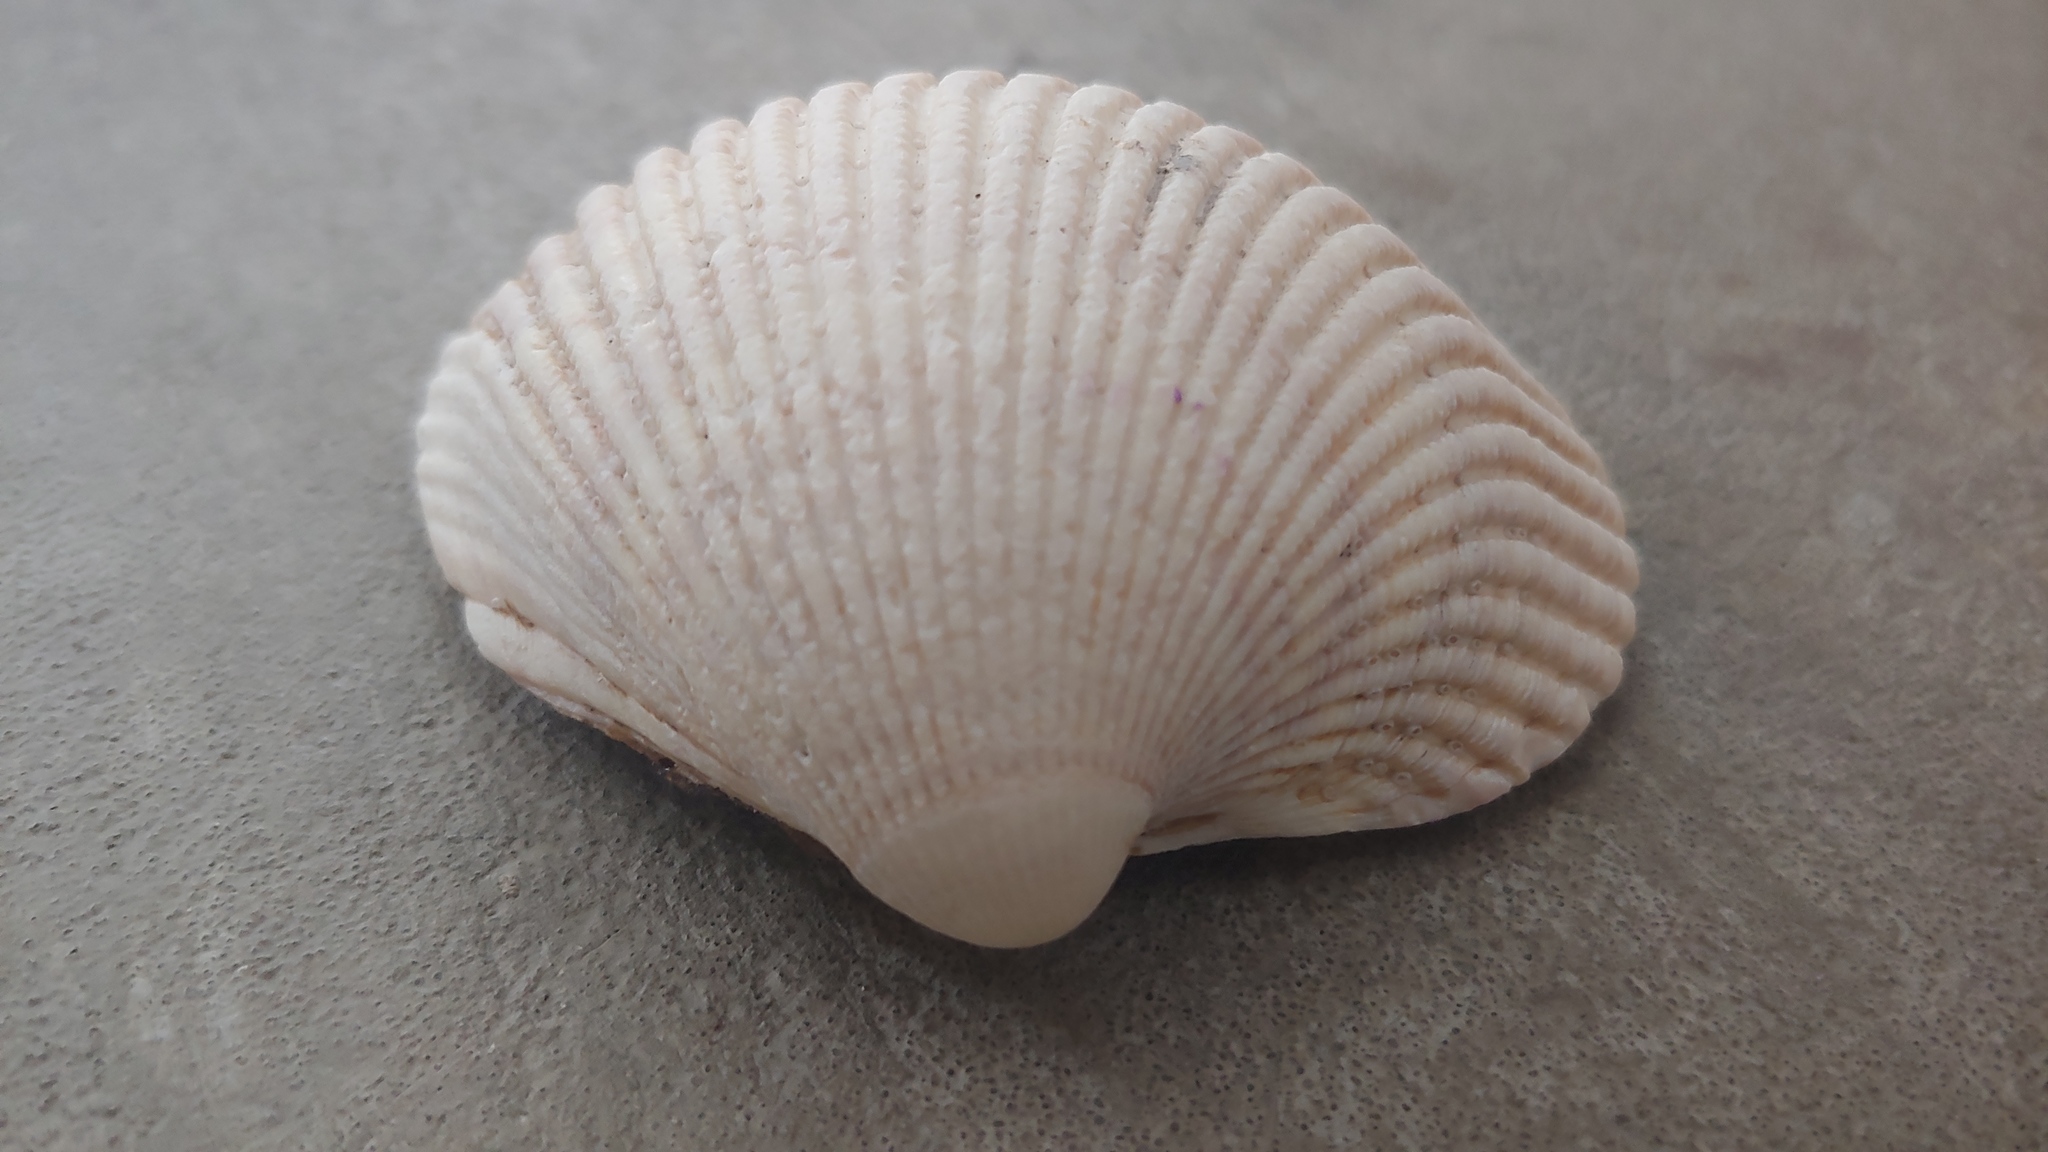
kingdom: Animalia
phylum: Mollusca
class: Bivalvia
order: Cardiida
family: Cardiidae
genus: Clinocardium
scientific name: Clinocardium nuttallii
